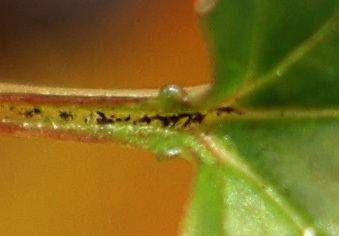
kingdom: Plantae
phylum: Tracheophyta
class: Magnoliopsida
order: Dipsacales
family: Viburnaceae
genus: Viburnum
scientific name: Viburnum opulus
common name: Guelder-rose
